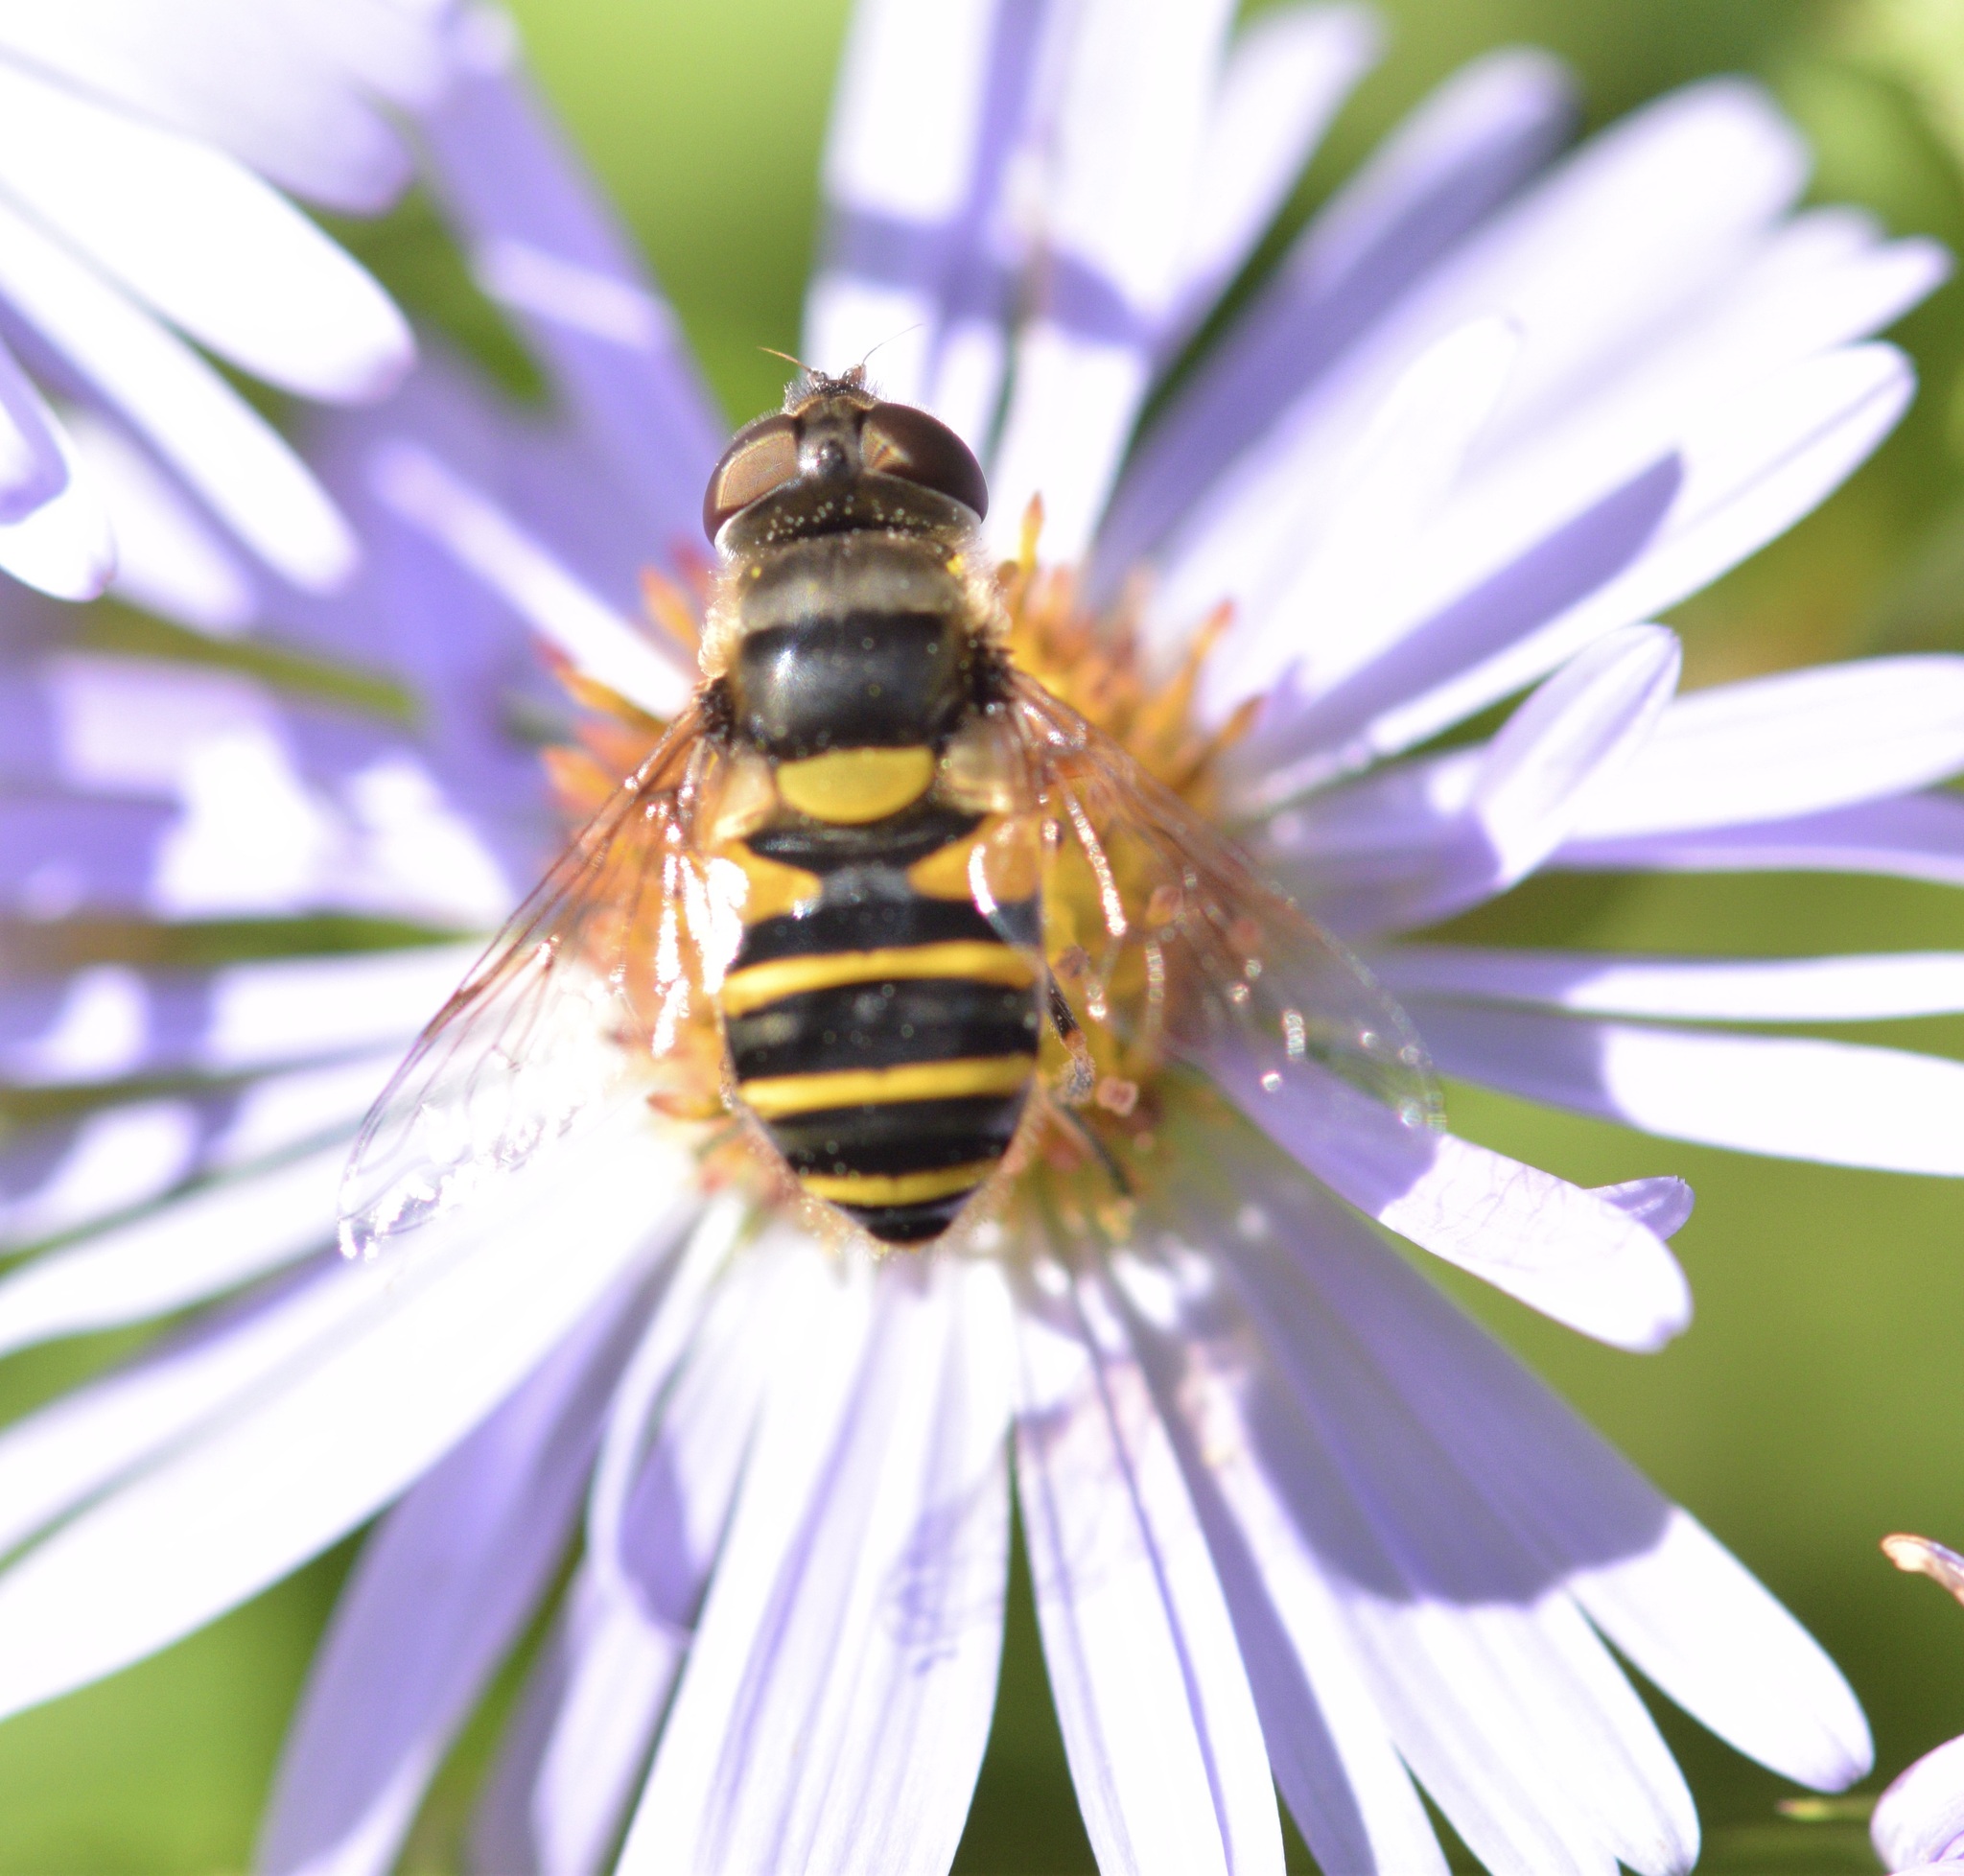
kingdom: Animalia
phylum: Arthropoda
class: Insecta
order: Diptera
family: Syrphidae
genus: Eristalis
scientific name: Eristalis transversa
